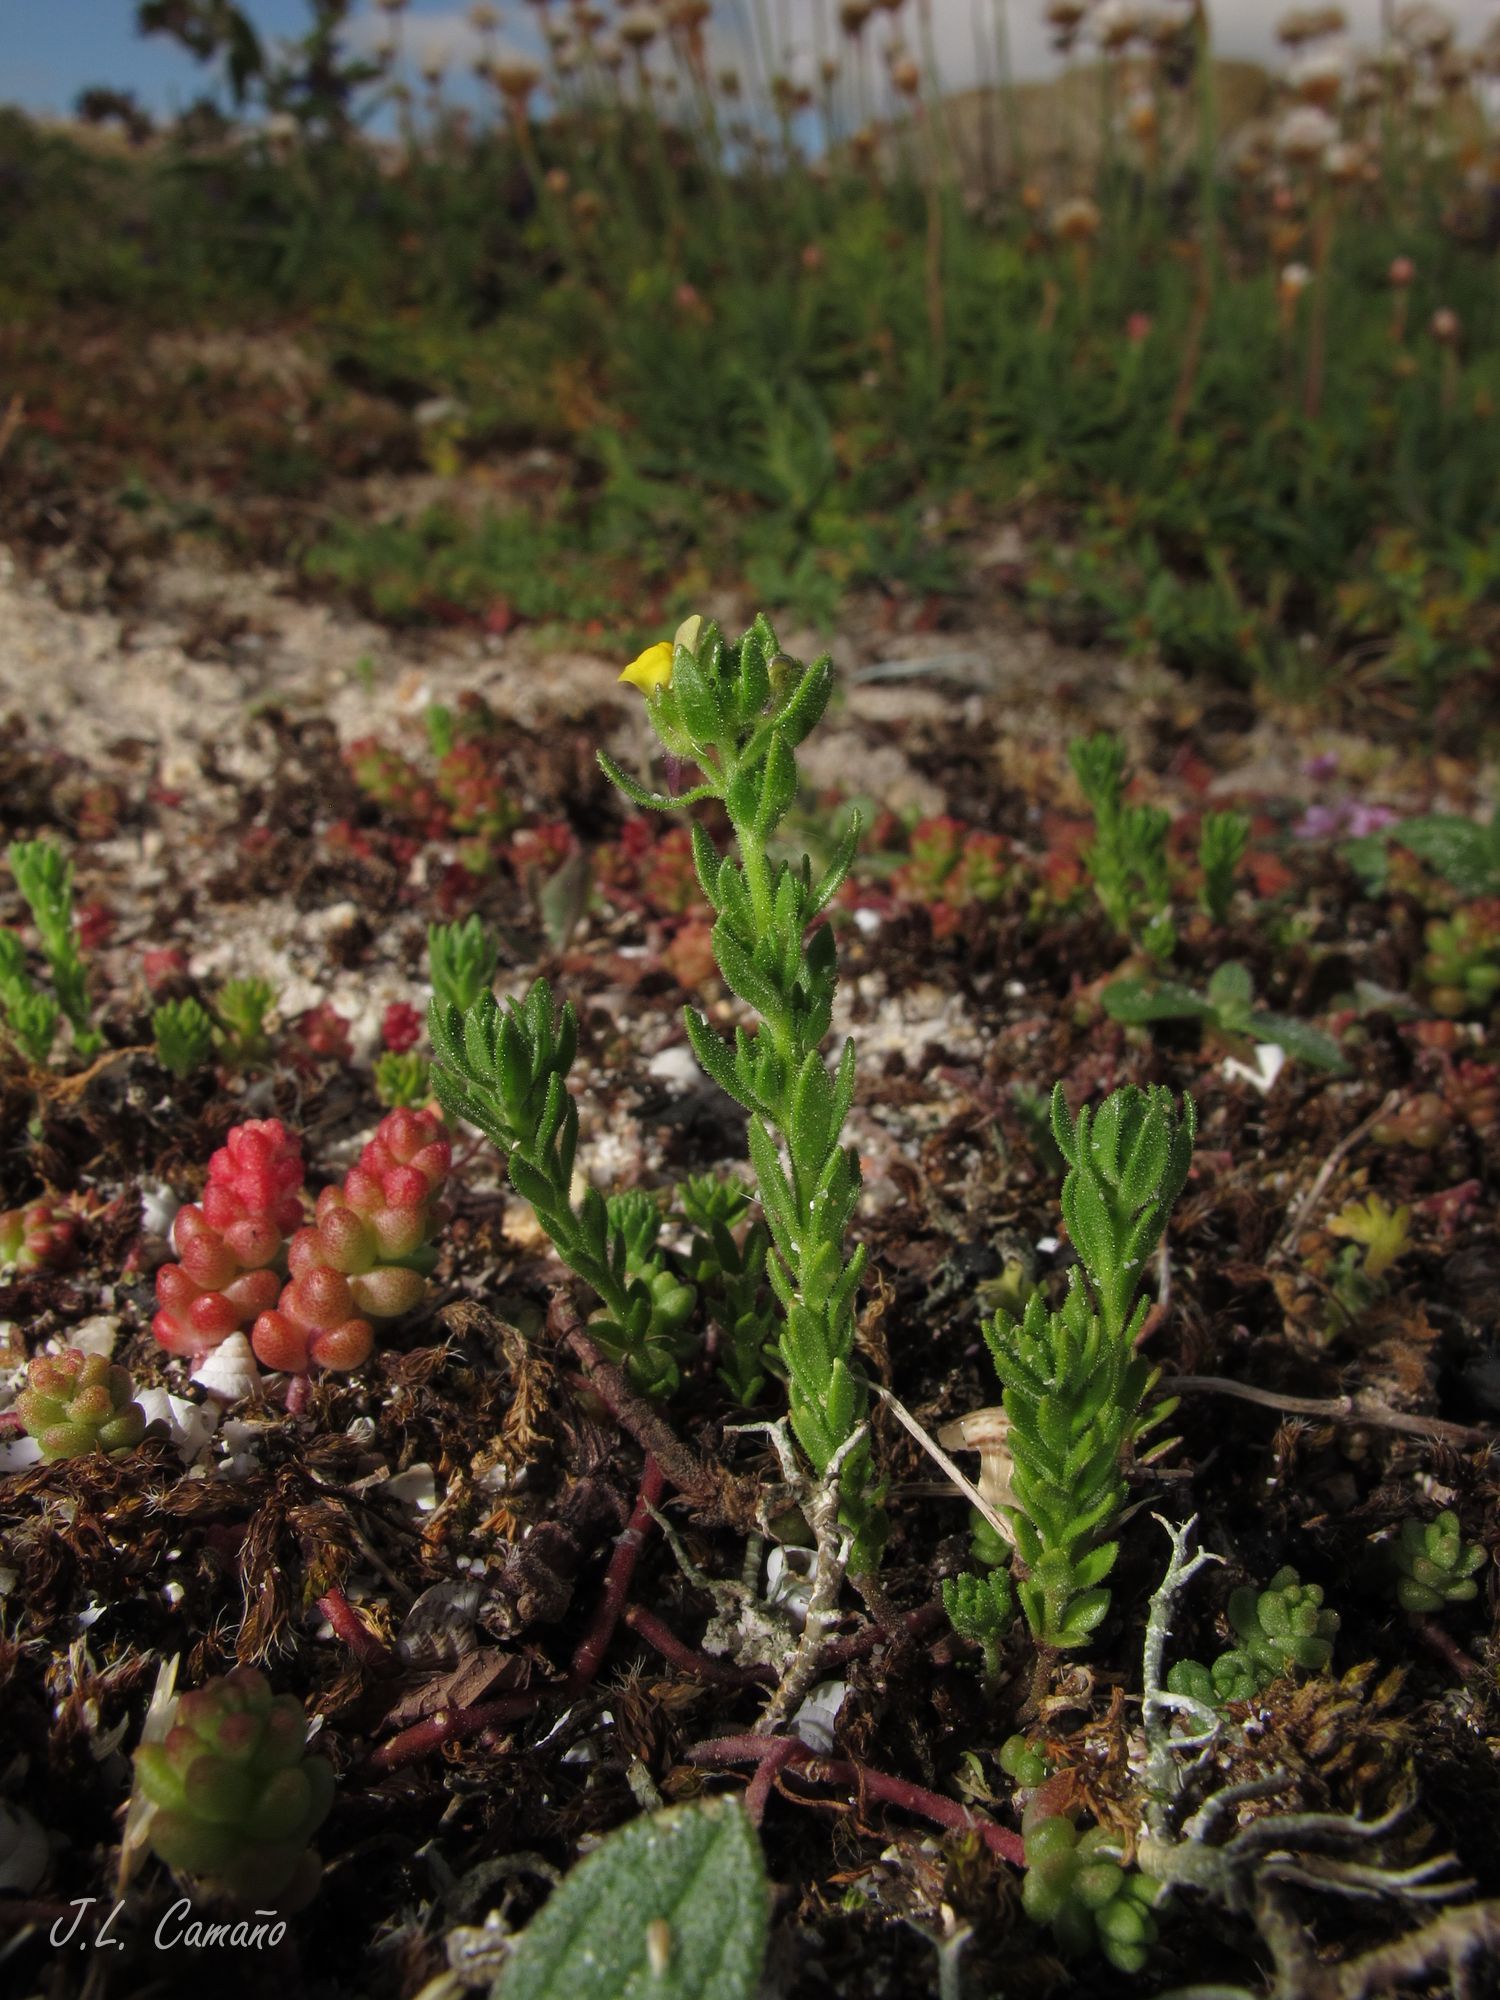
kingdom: Plantae
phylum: Tracheophyta
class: Magnoliopsida
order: Lamiales
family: Plantaginaceae
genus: Linaria
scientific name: Linaria arenaria
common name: Sand toadflax
